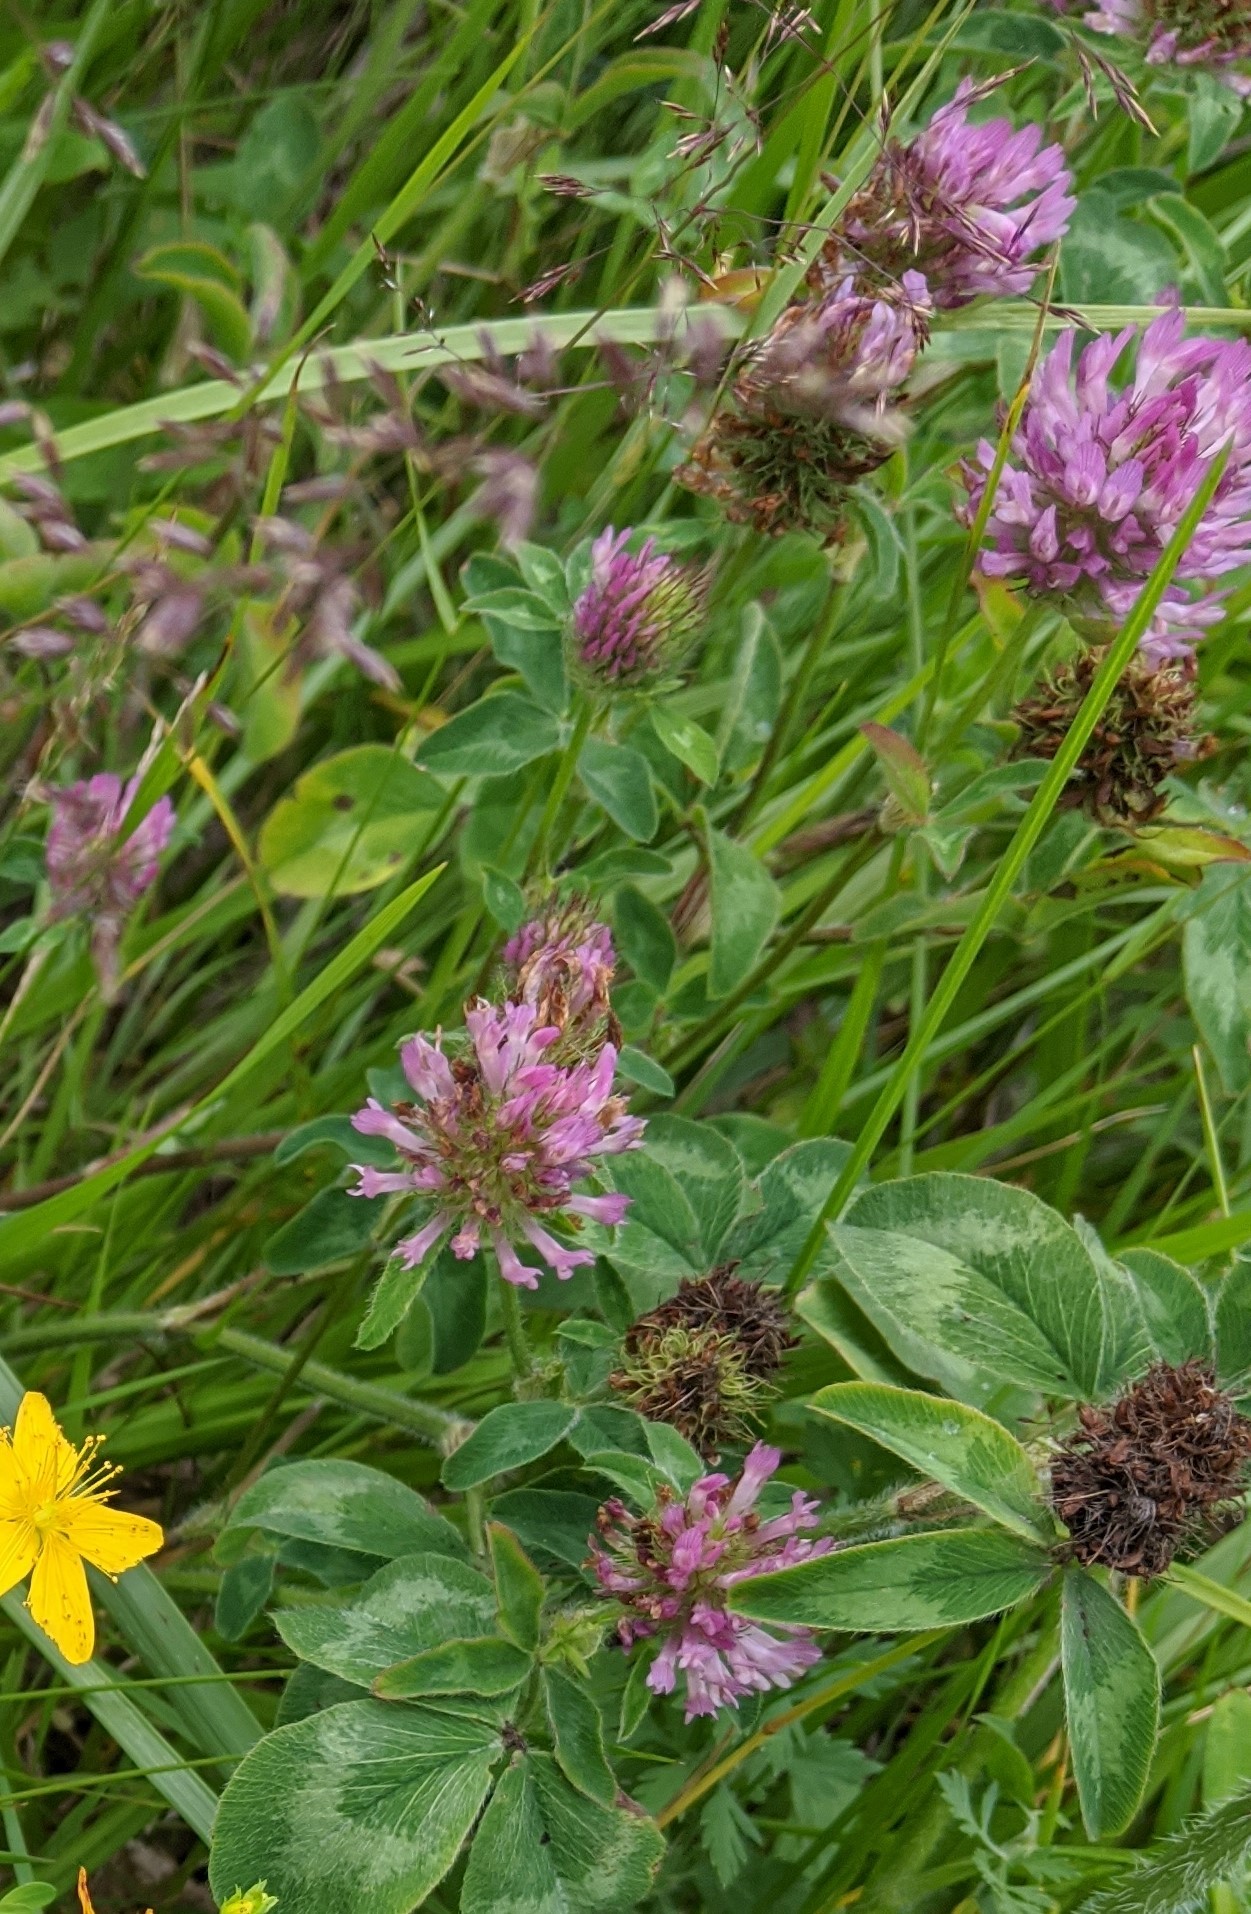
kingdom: Plantae
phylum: Tracheophyta
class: Magnoliopsida
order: Fabales
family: Fabaceae
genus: Trifolium
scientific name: Trifolium pratense
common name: Red clover
